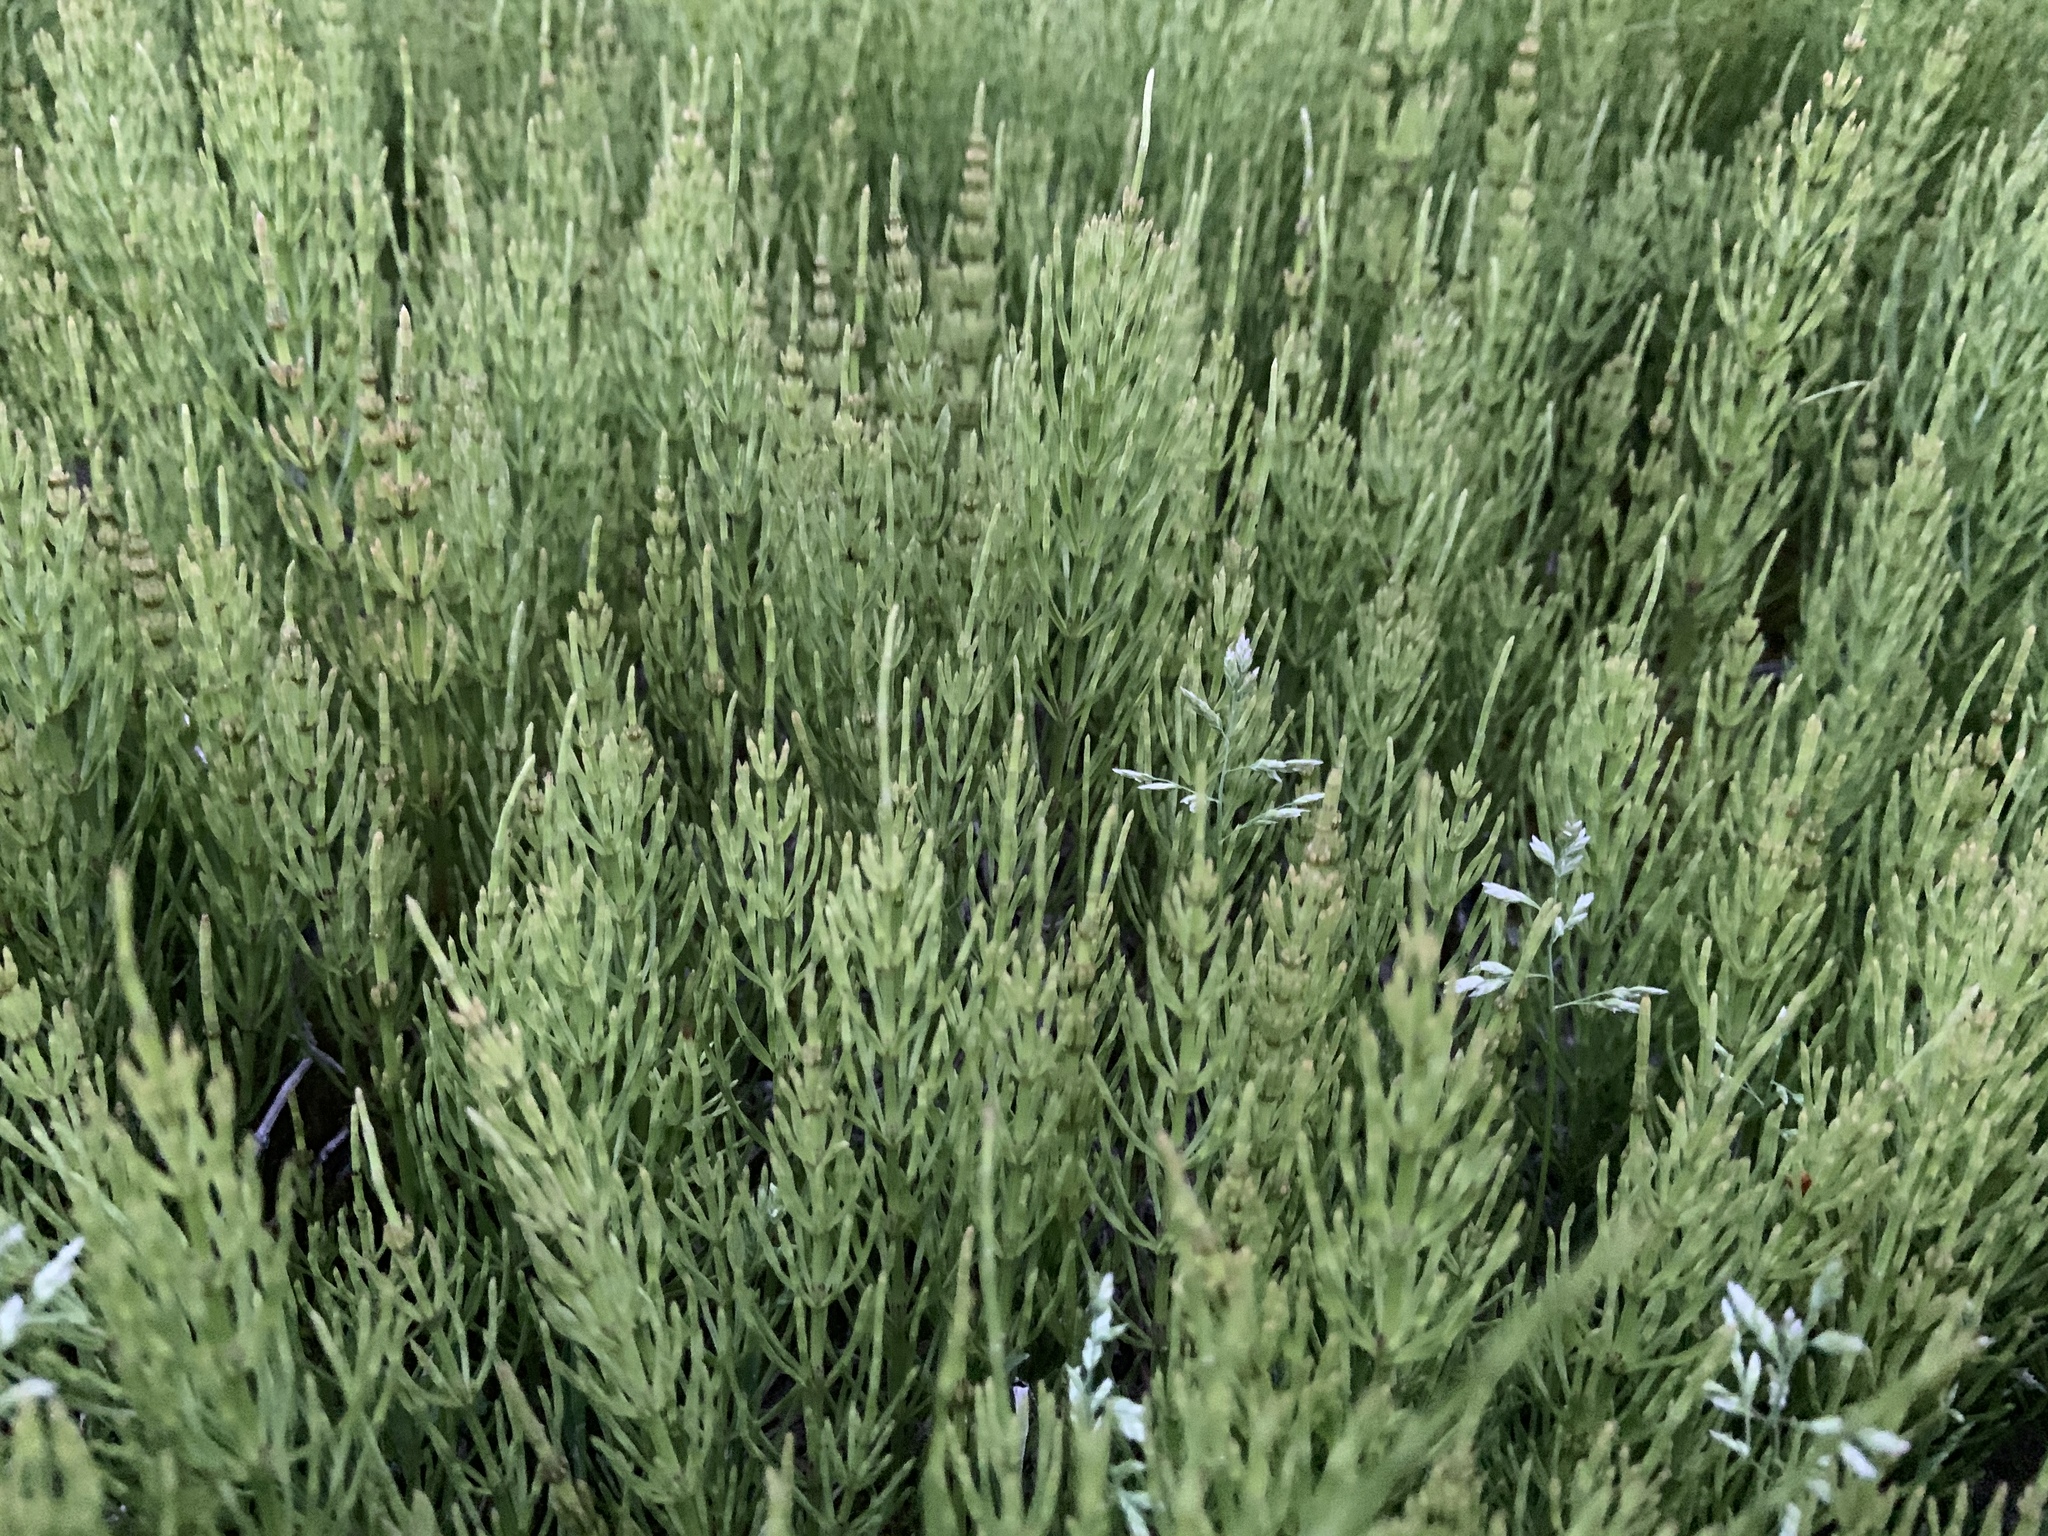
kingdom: Plantae
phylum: Tracheophyta
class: Polypodiopsida
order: Equisetales
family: Equisetaceae
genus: Equisetum
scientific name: Equisetum arvense
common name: Field horsetail
